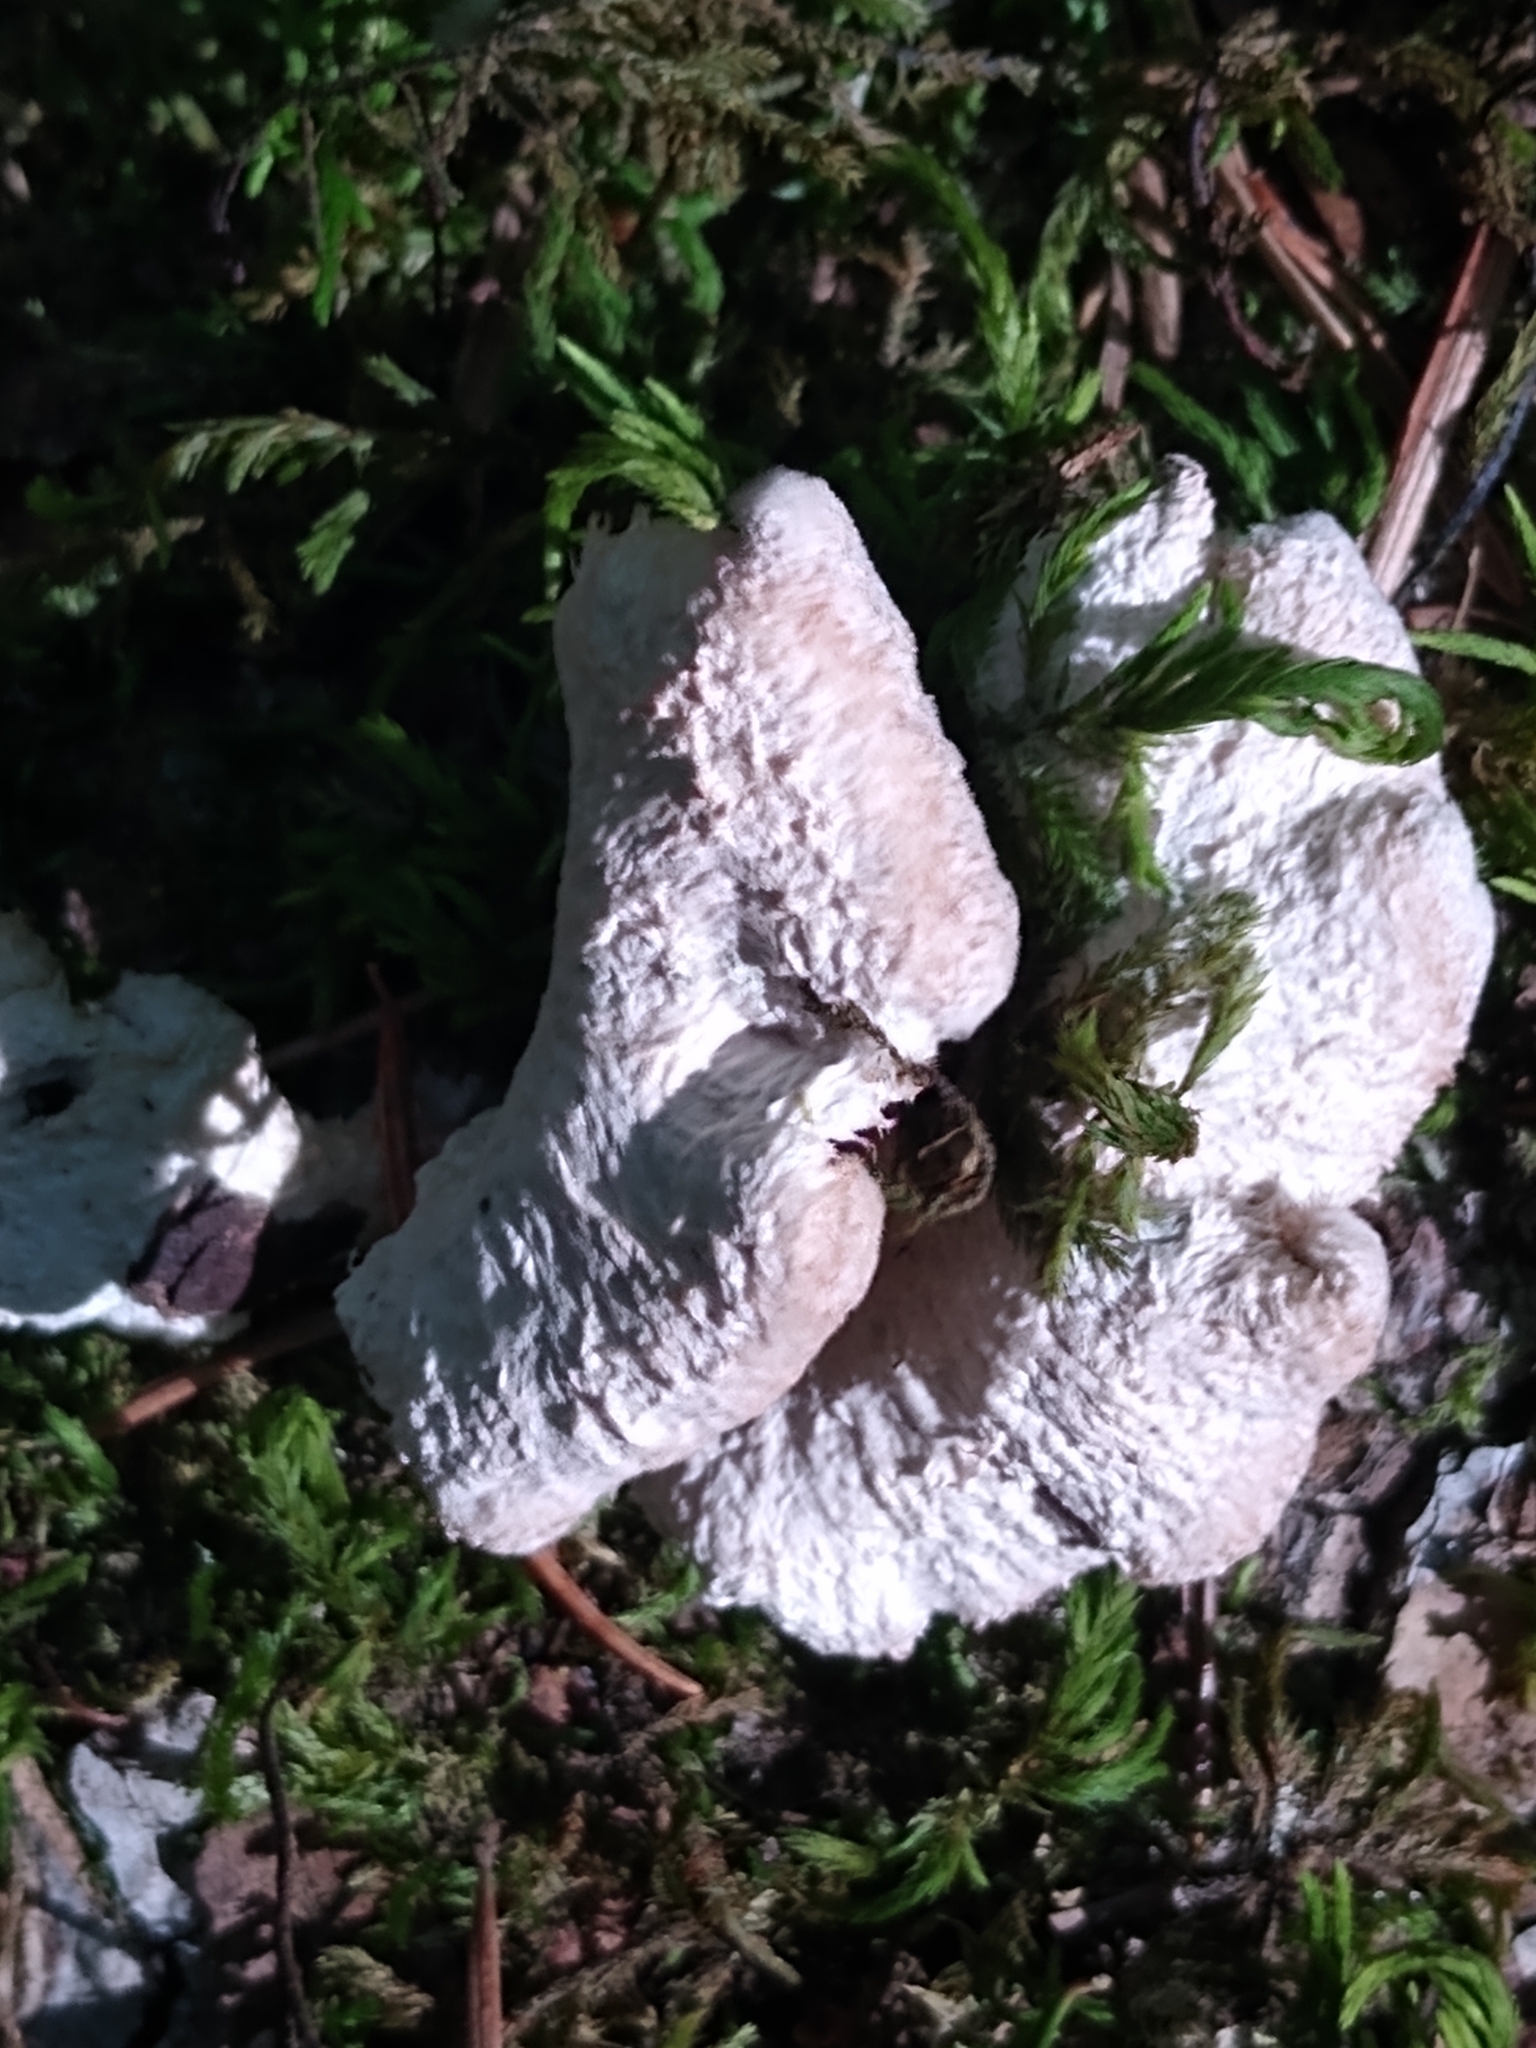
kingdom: Fungi
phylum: Basidiomycota
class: Agaricomycetes
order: Agaricales
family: Schizophyllaceae
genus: Schizophyllum
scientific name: Schizophyllum commune
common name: Common porecrust
